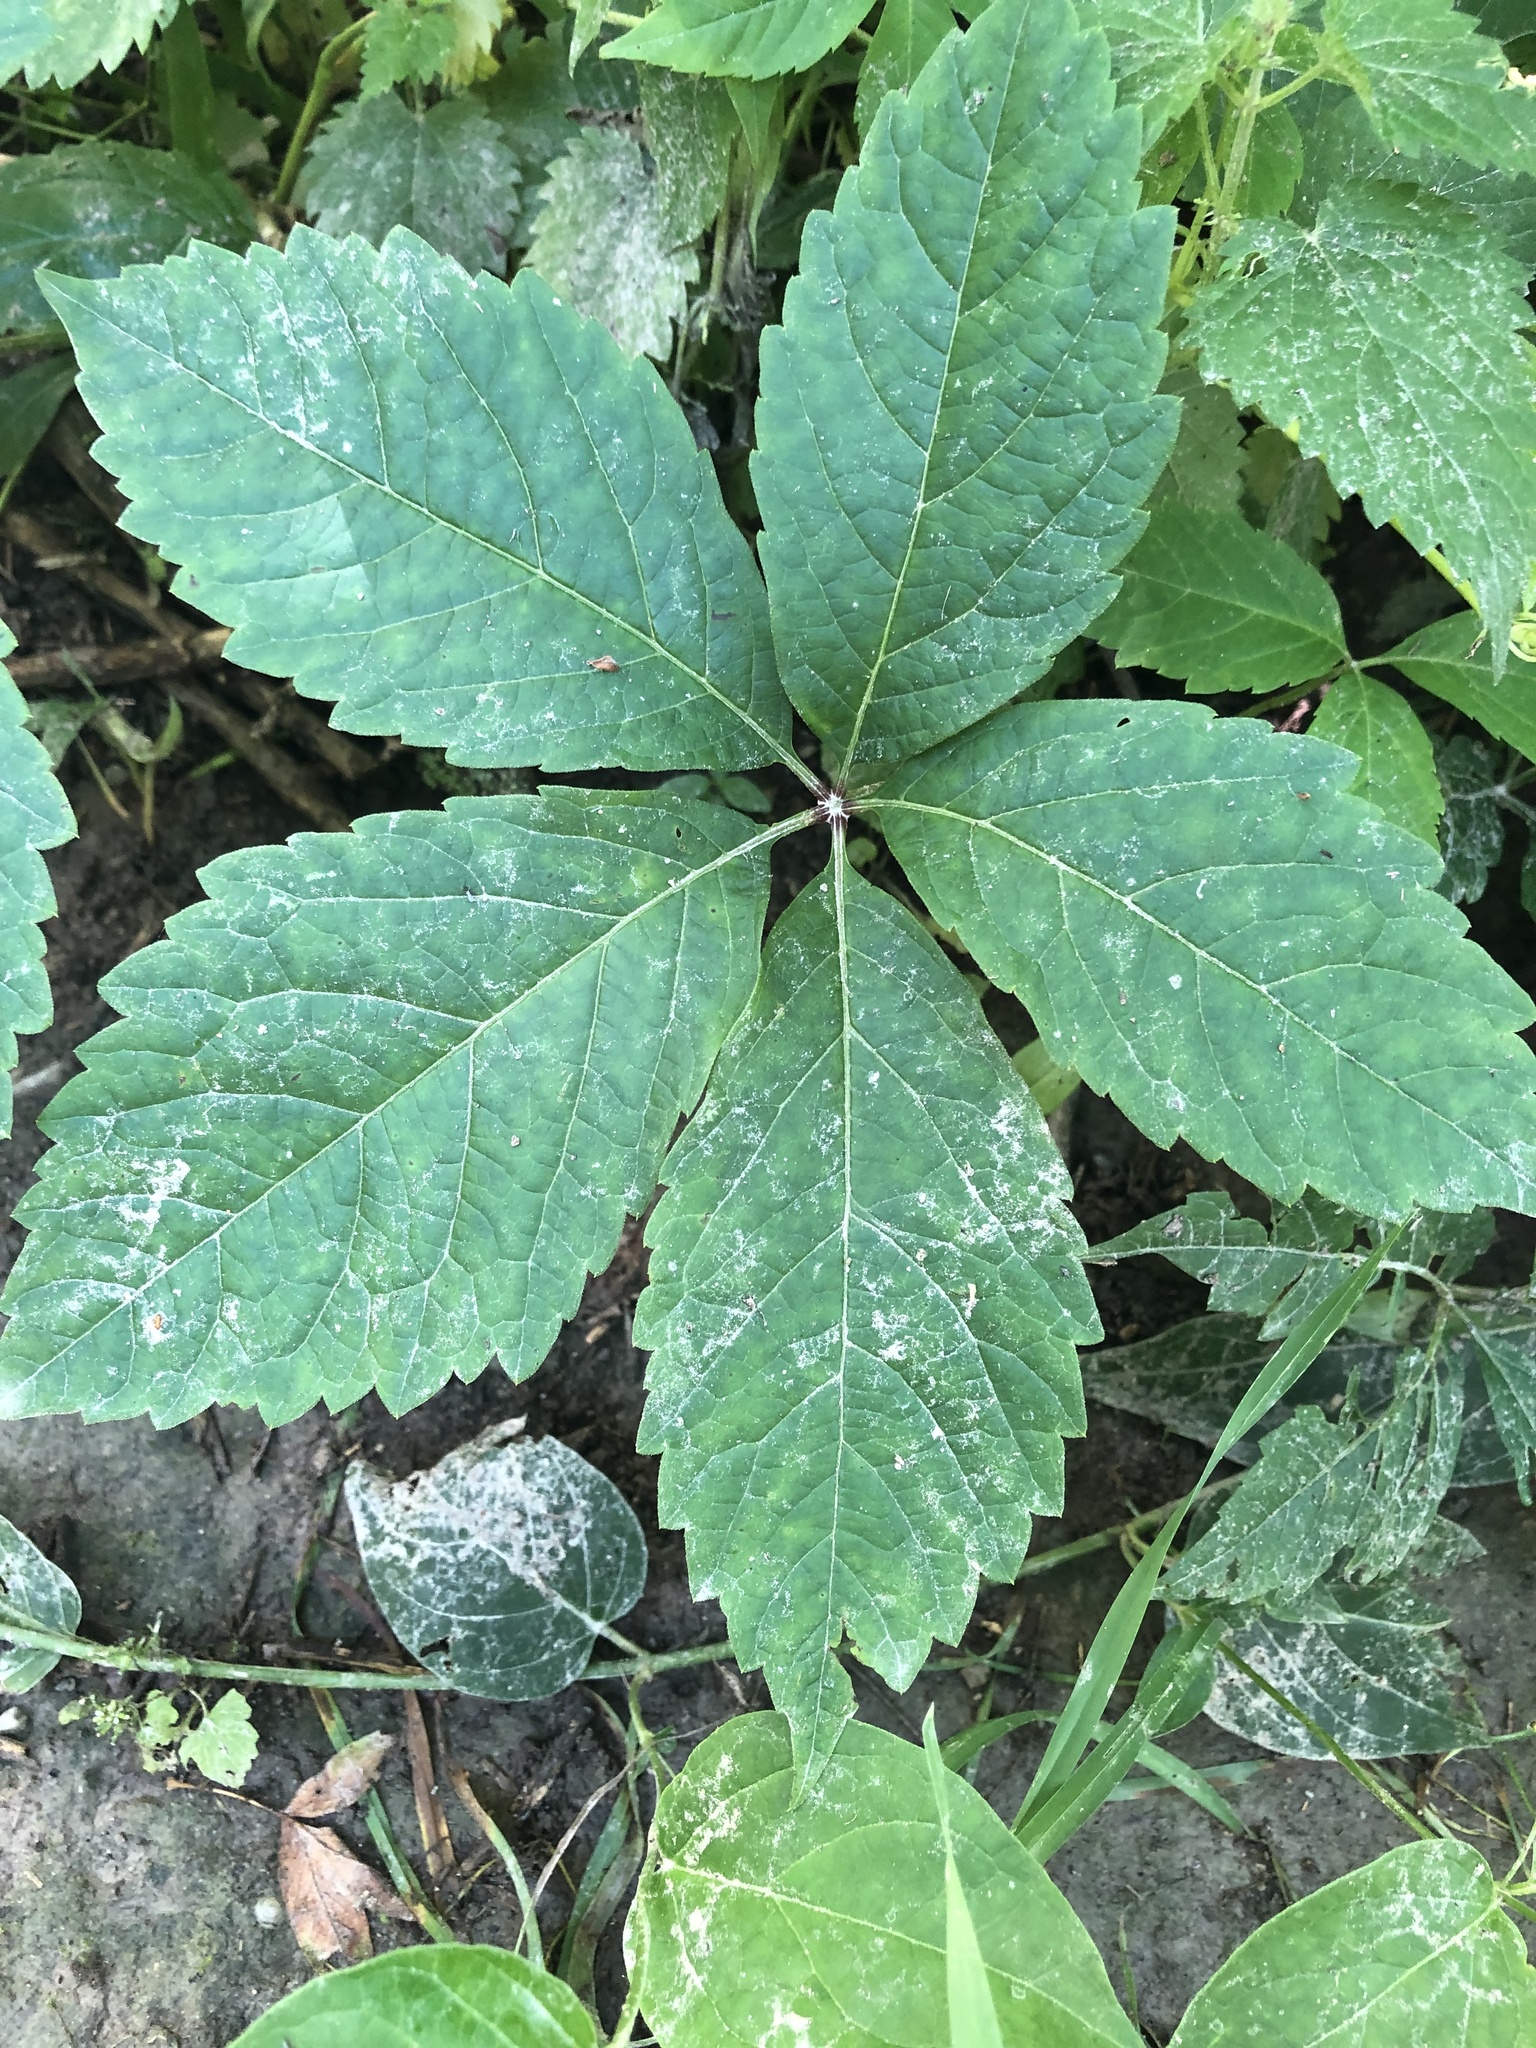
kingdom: Plantae
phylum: Tracheophyta
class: Magnoliopsida
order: Vitales
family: Vitaceae
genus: Parthenocissus
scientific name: Parthenocissus inserta
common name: False virginia-creeper
